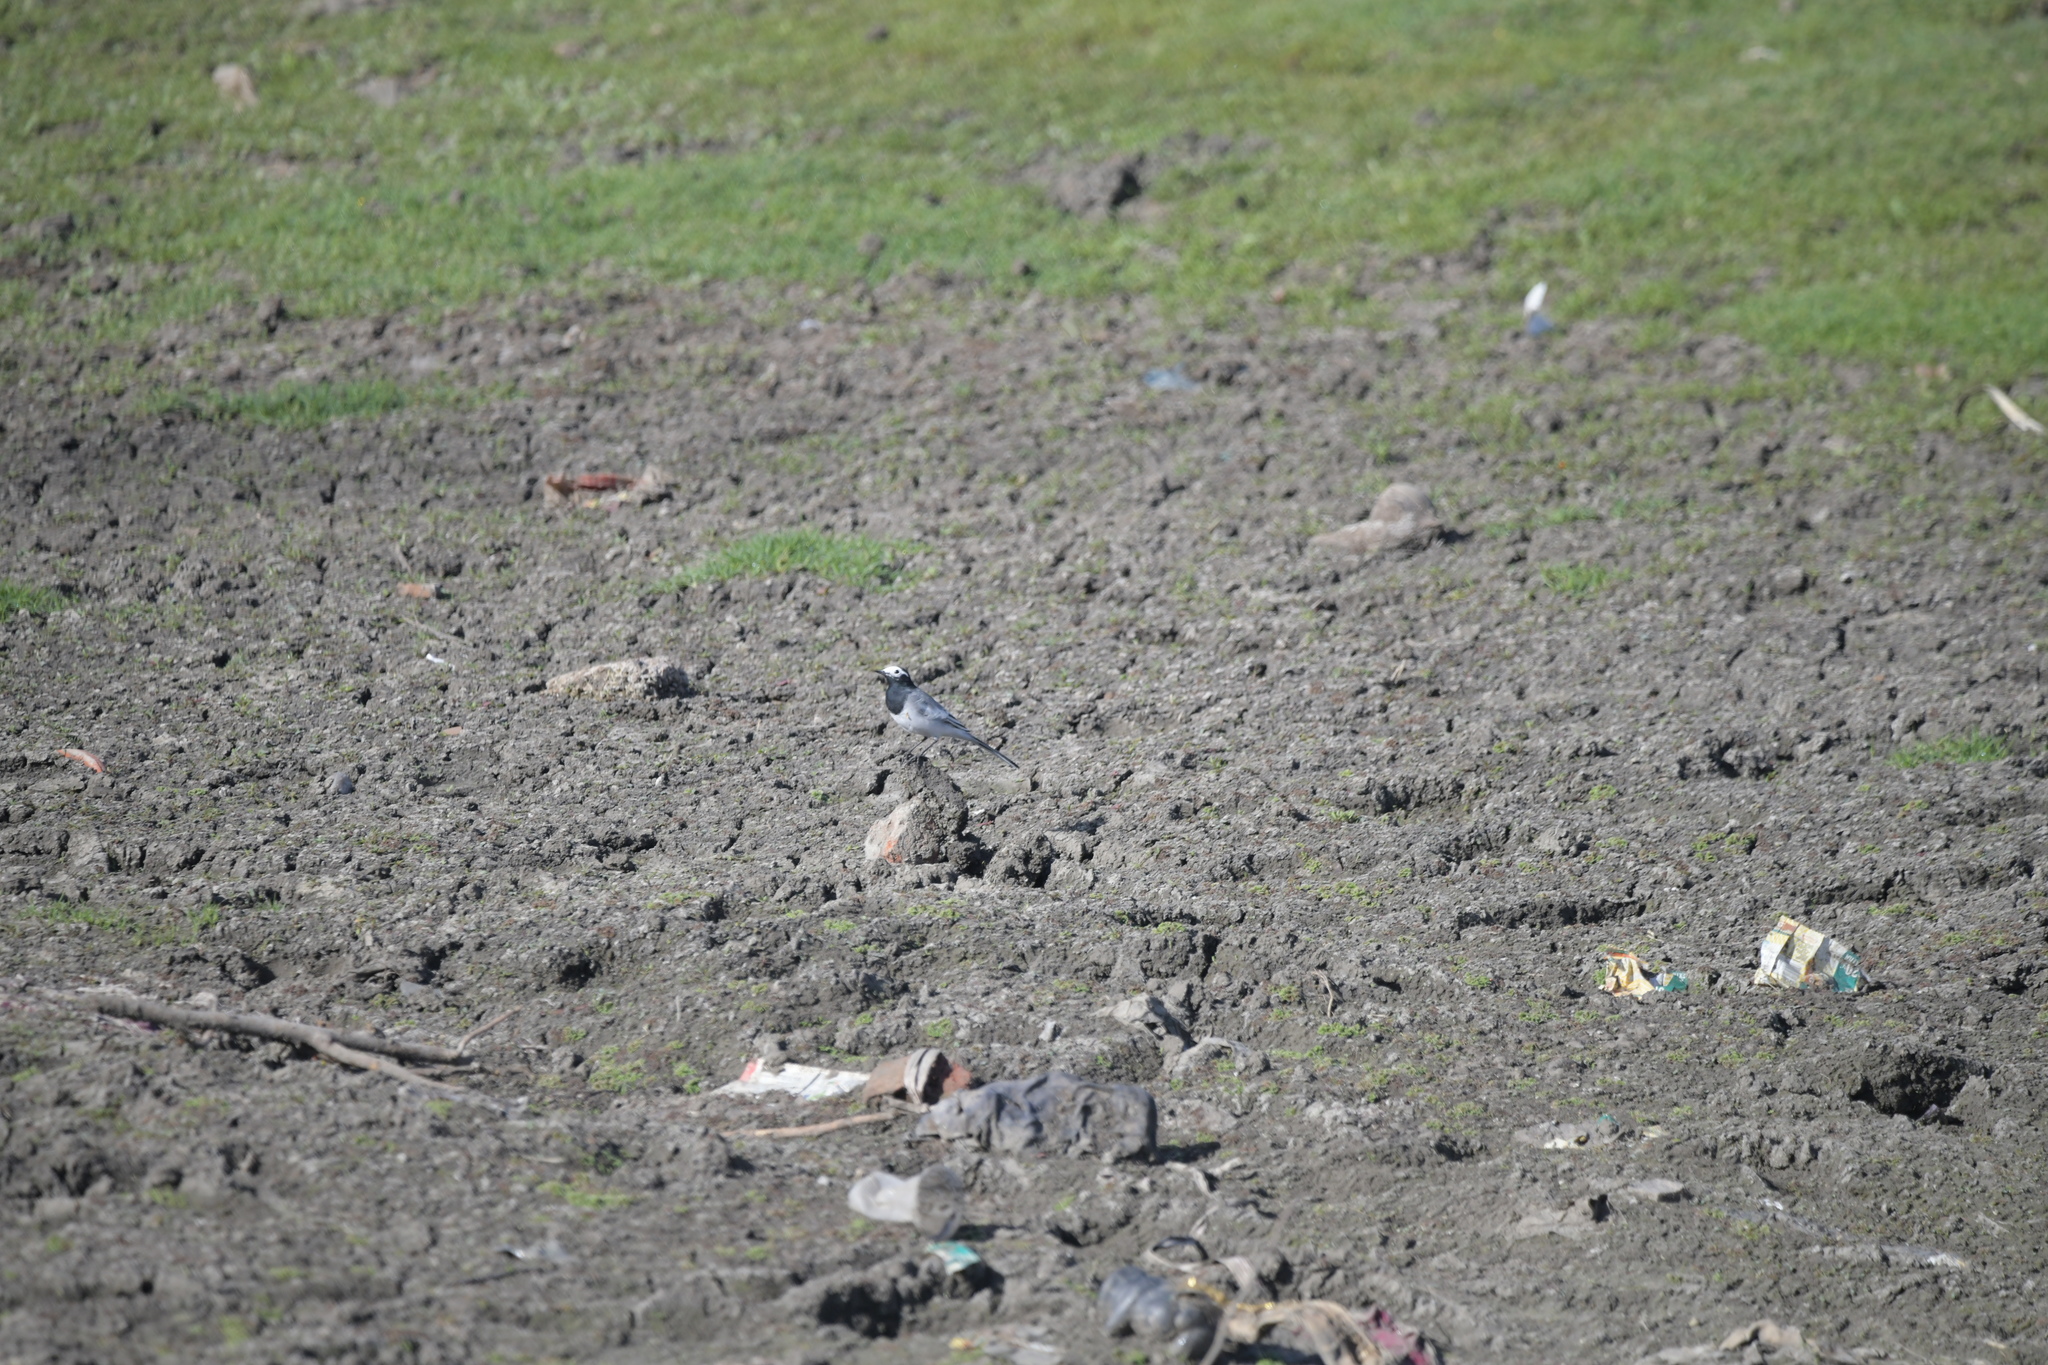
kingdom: Animalia
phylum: Chordata
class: Aves
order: Passeriformes
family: Motacillidae
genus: Motacilla
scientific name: Motacilla alba
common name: White wagtail
